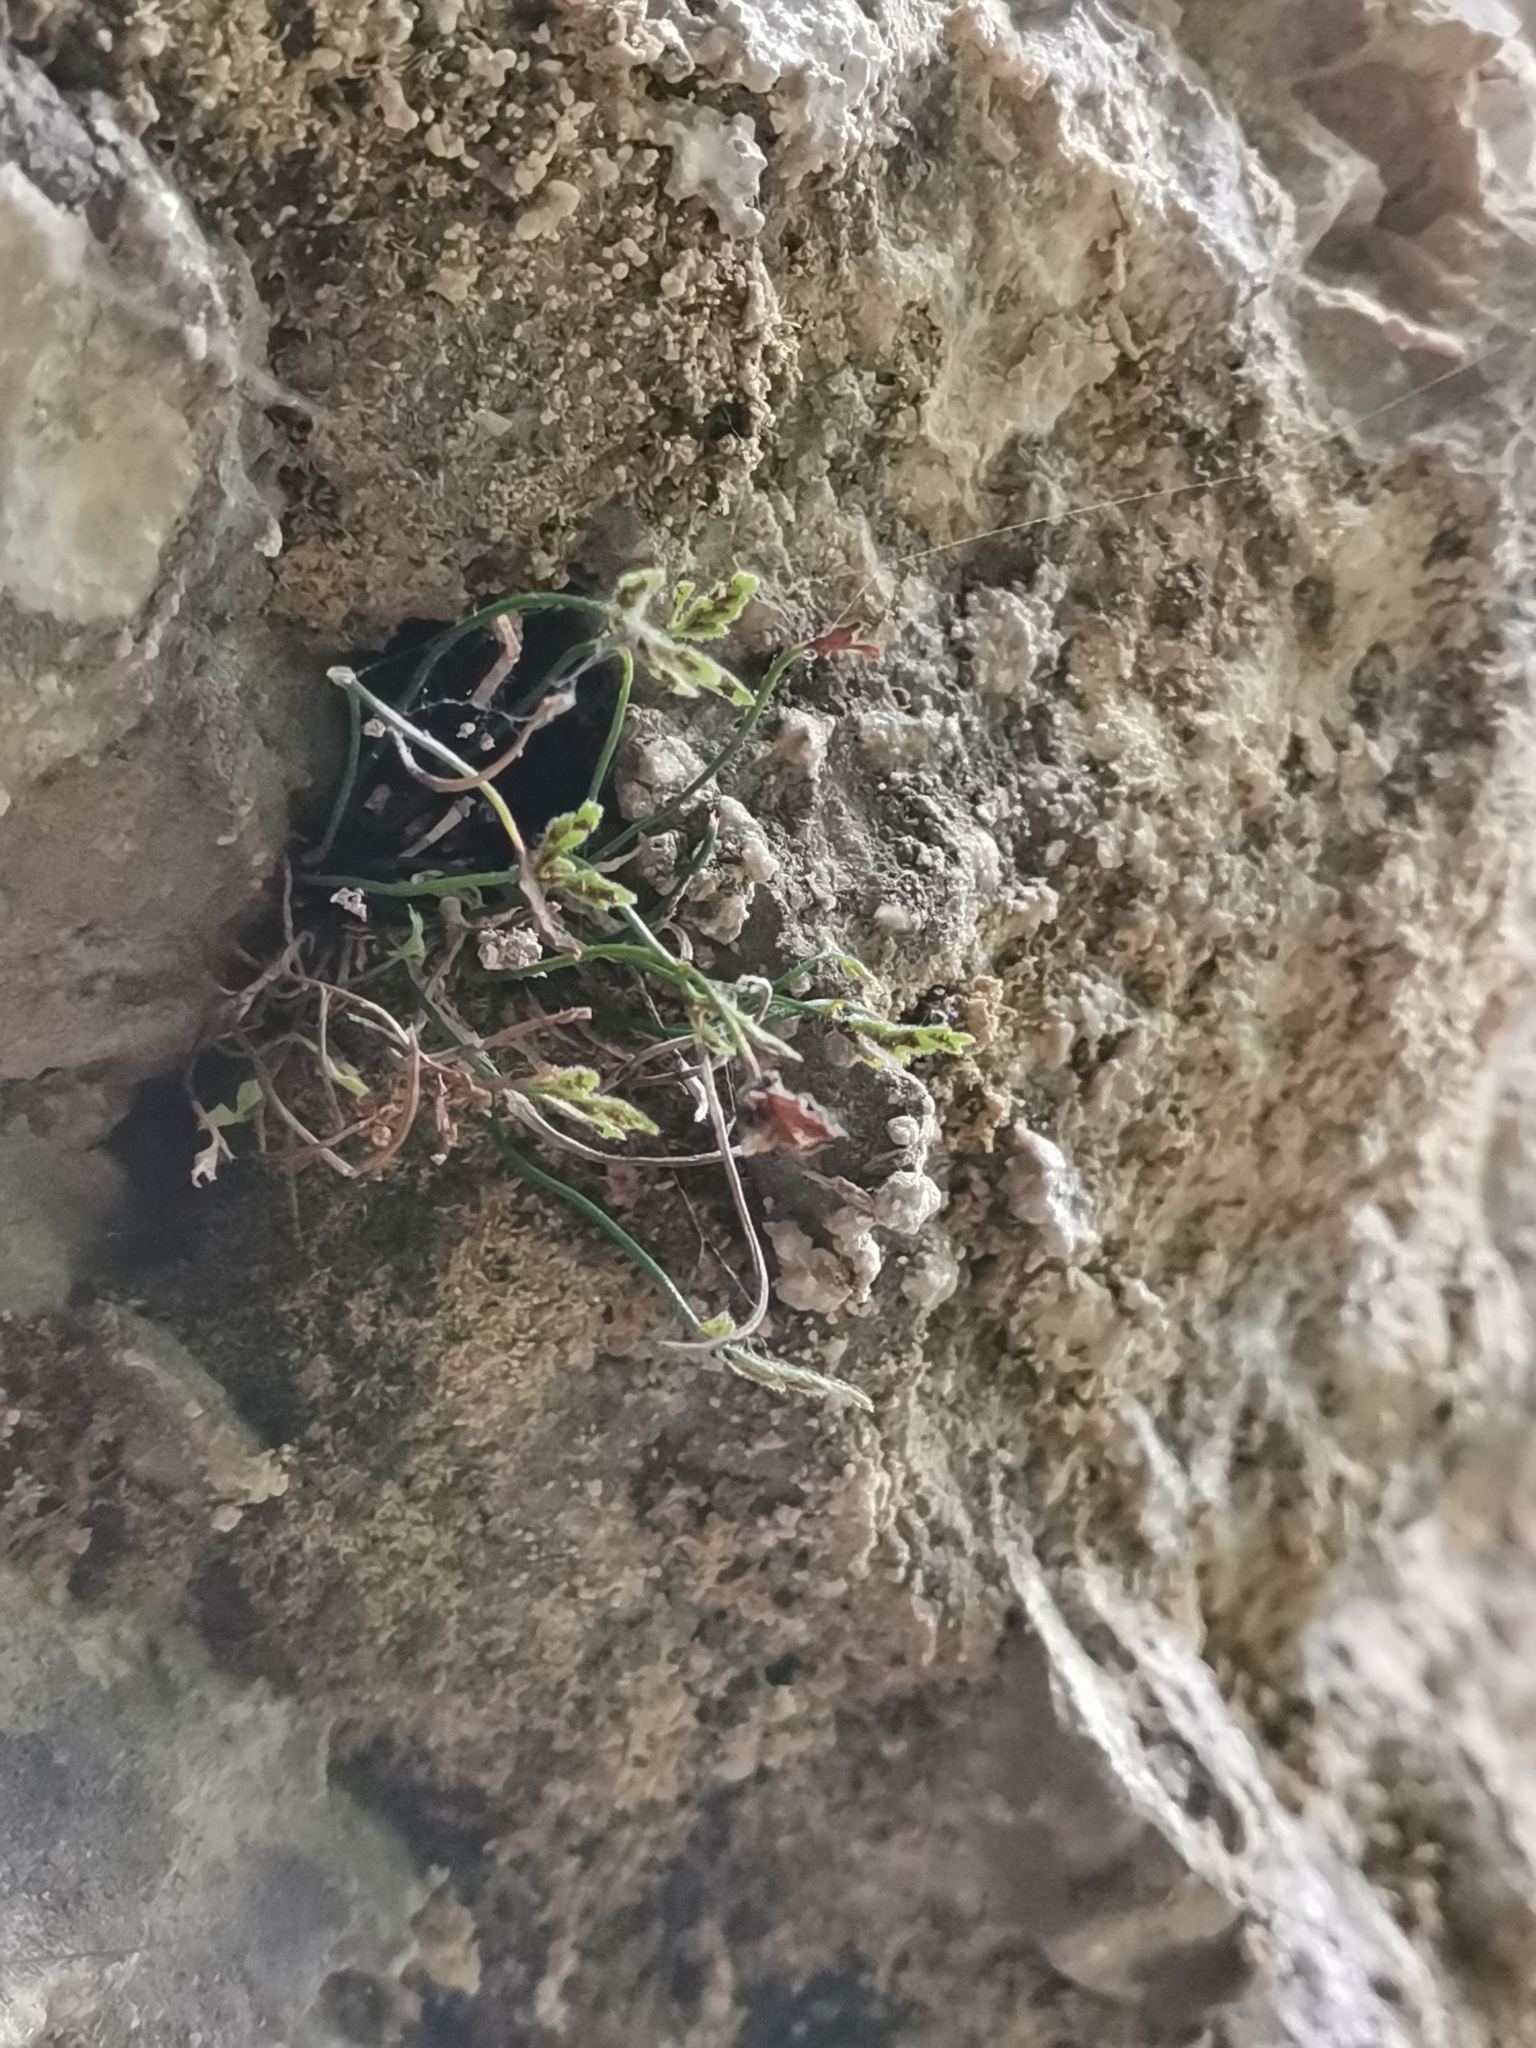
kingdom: Plantae
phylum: Tracheophyta
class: Polypodiopsida
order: Polypodiales
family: Aspleniaceae
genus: Asplenium
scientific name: Asplenium seelosii
